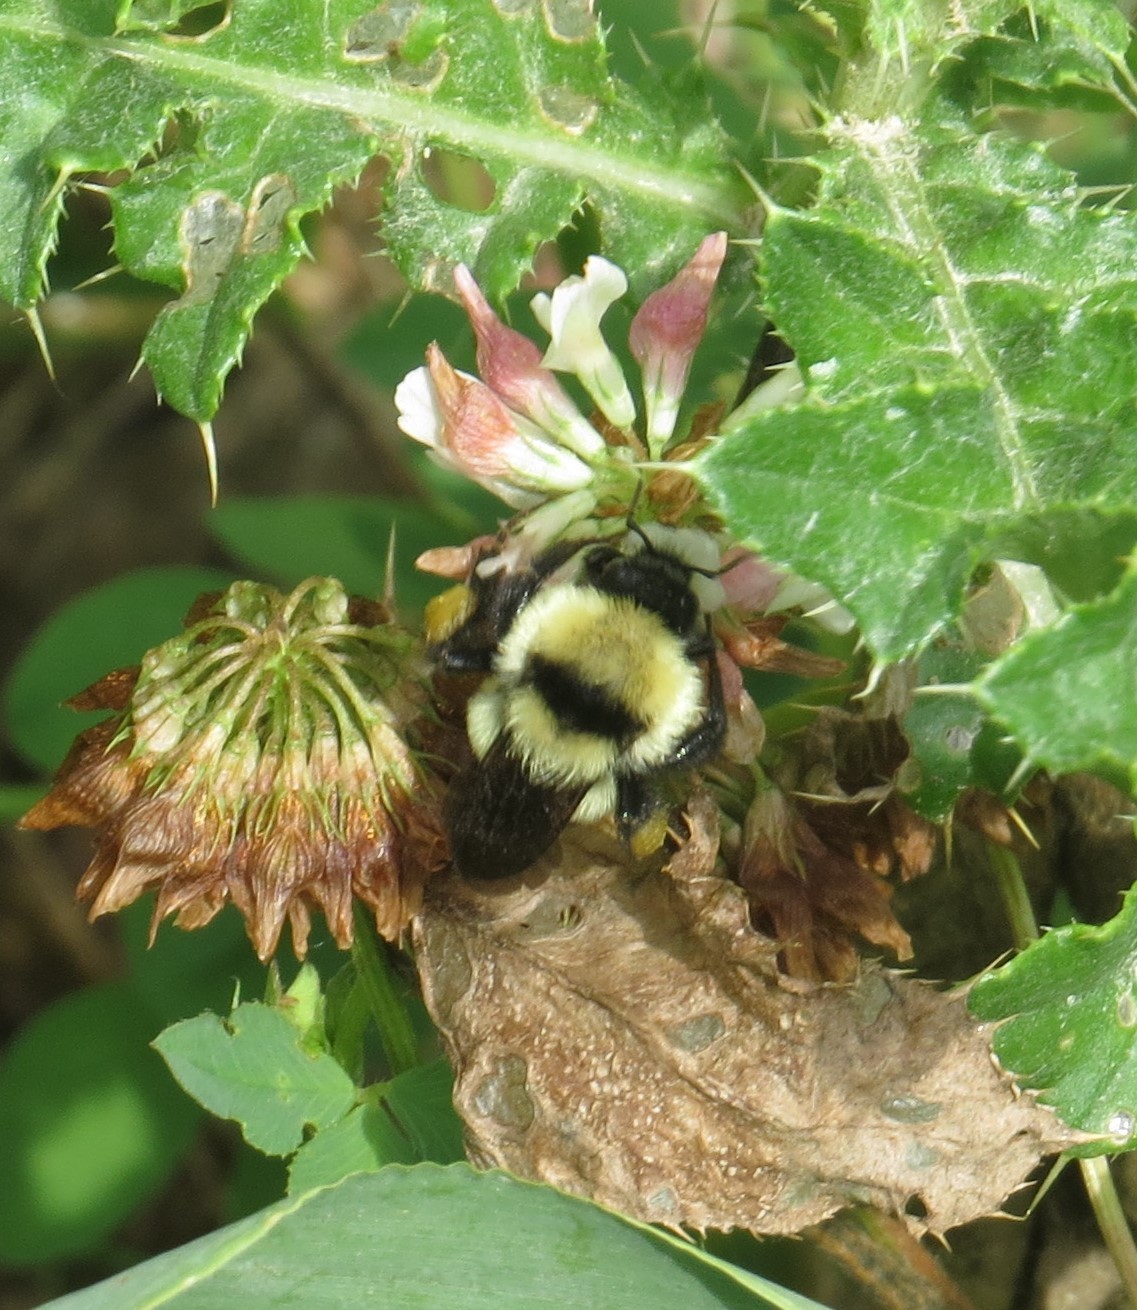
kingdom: Animalia
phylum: Arthropoda
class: Insecta
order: Hymenoptera
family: Apidae
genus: Bombus
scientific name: Bombus fervidus
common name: Yellow bumble bee
